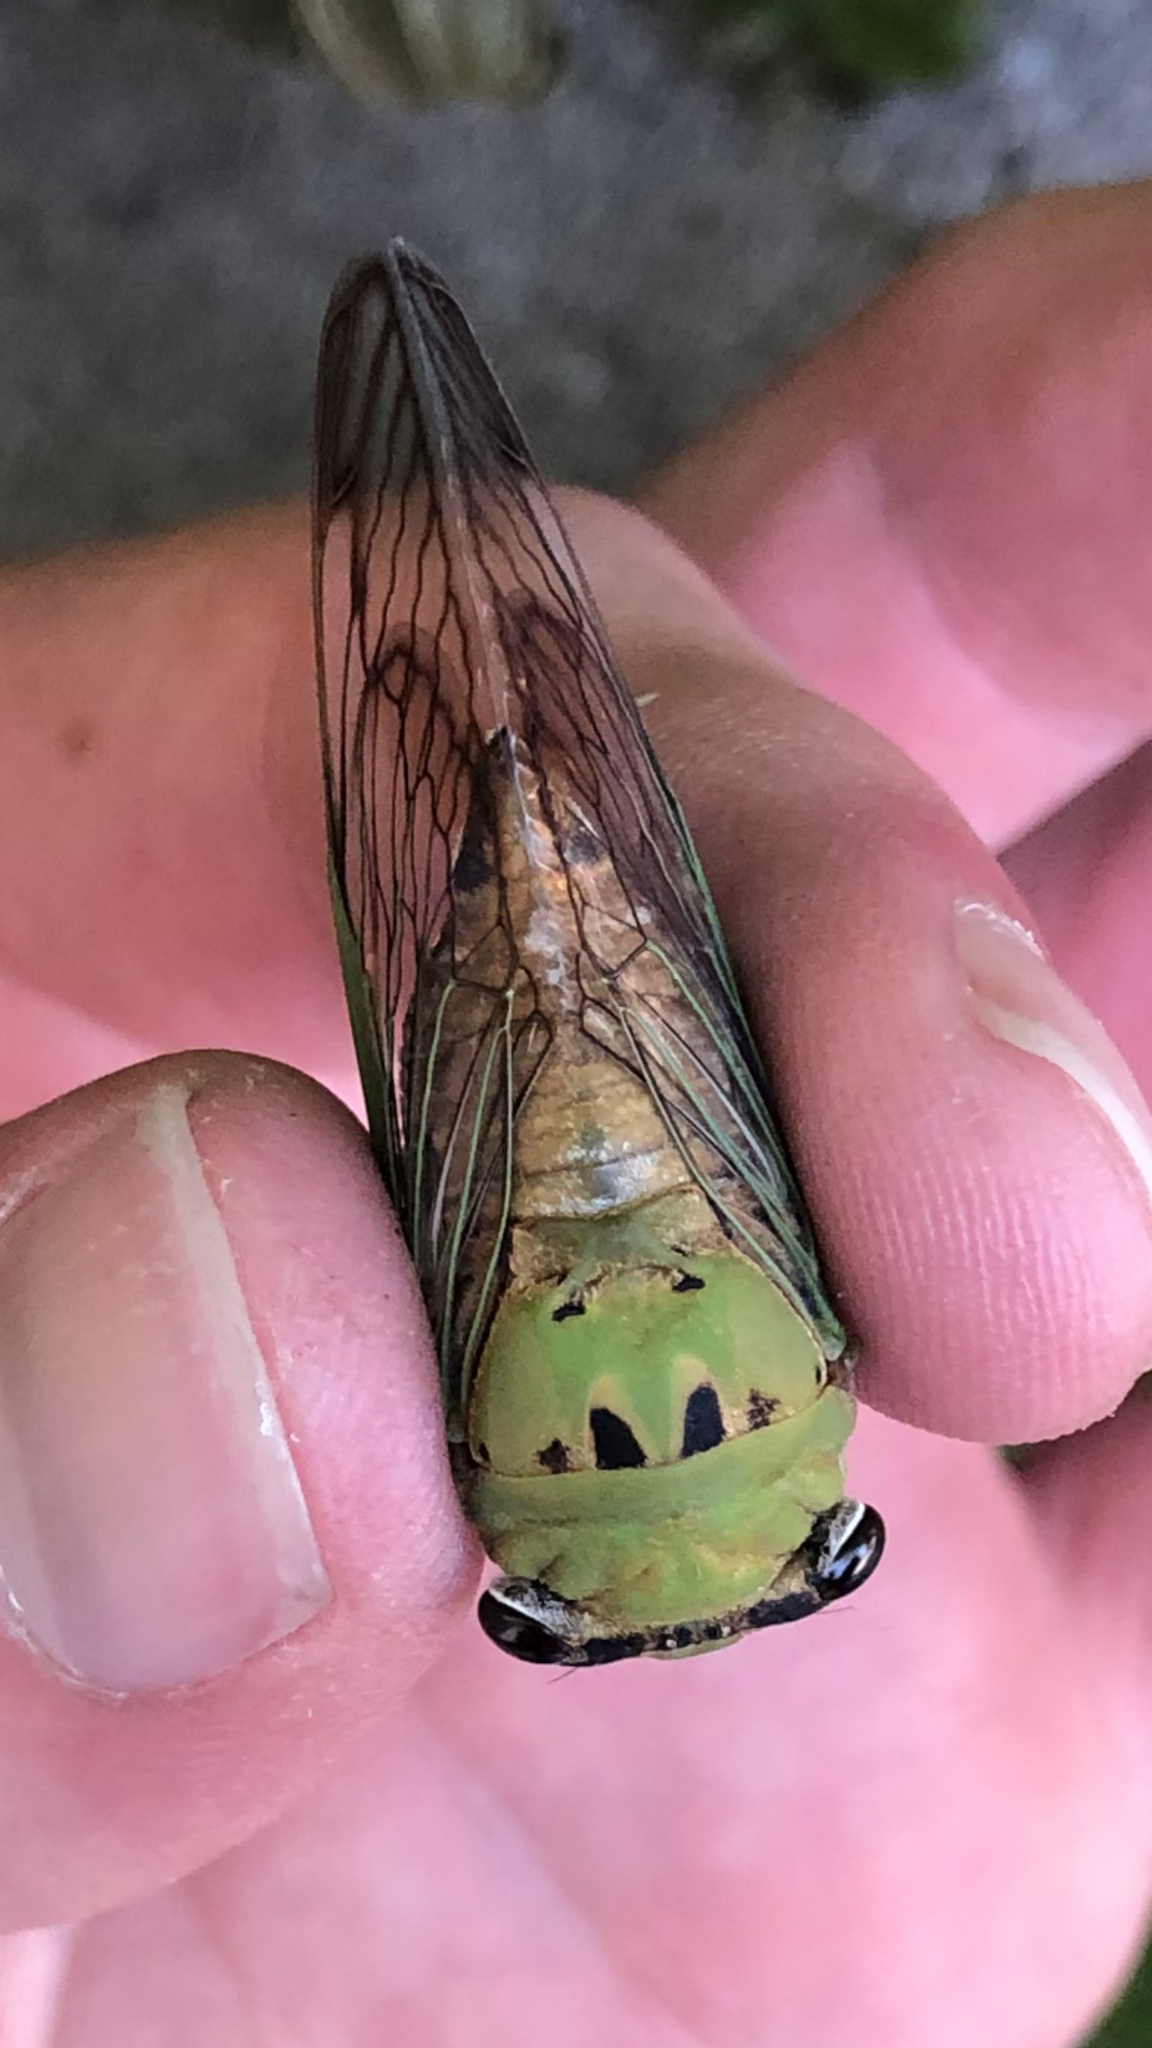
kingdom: Animalia
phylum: Arthropoda
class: Insecta
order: Hemiptera
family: Cicadidae
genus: Neotibicen
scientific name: Neotibicen superbus
